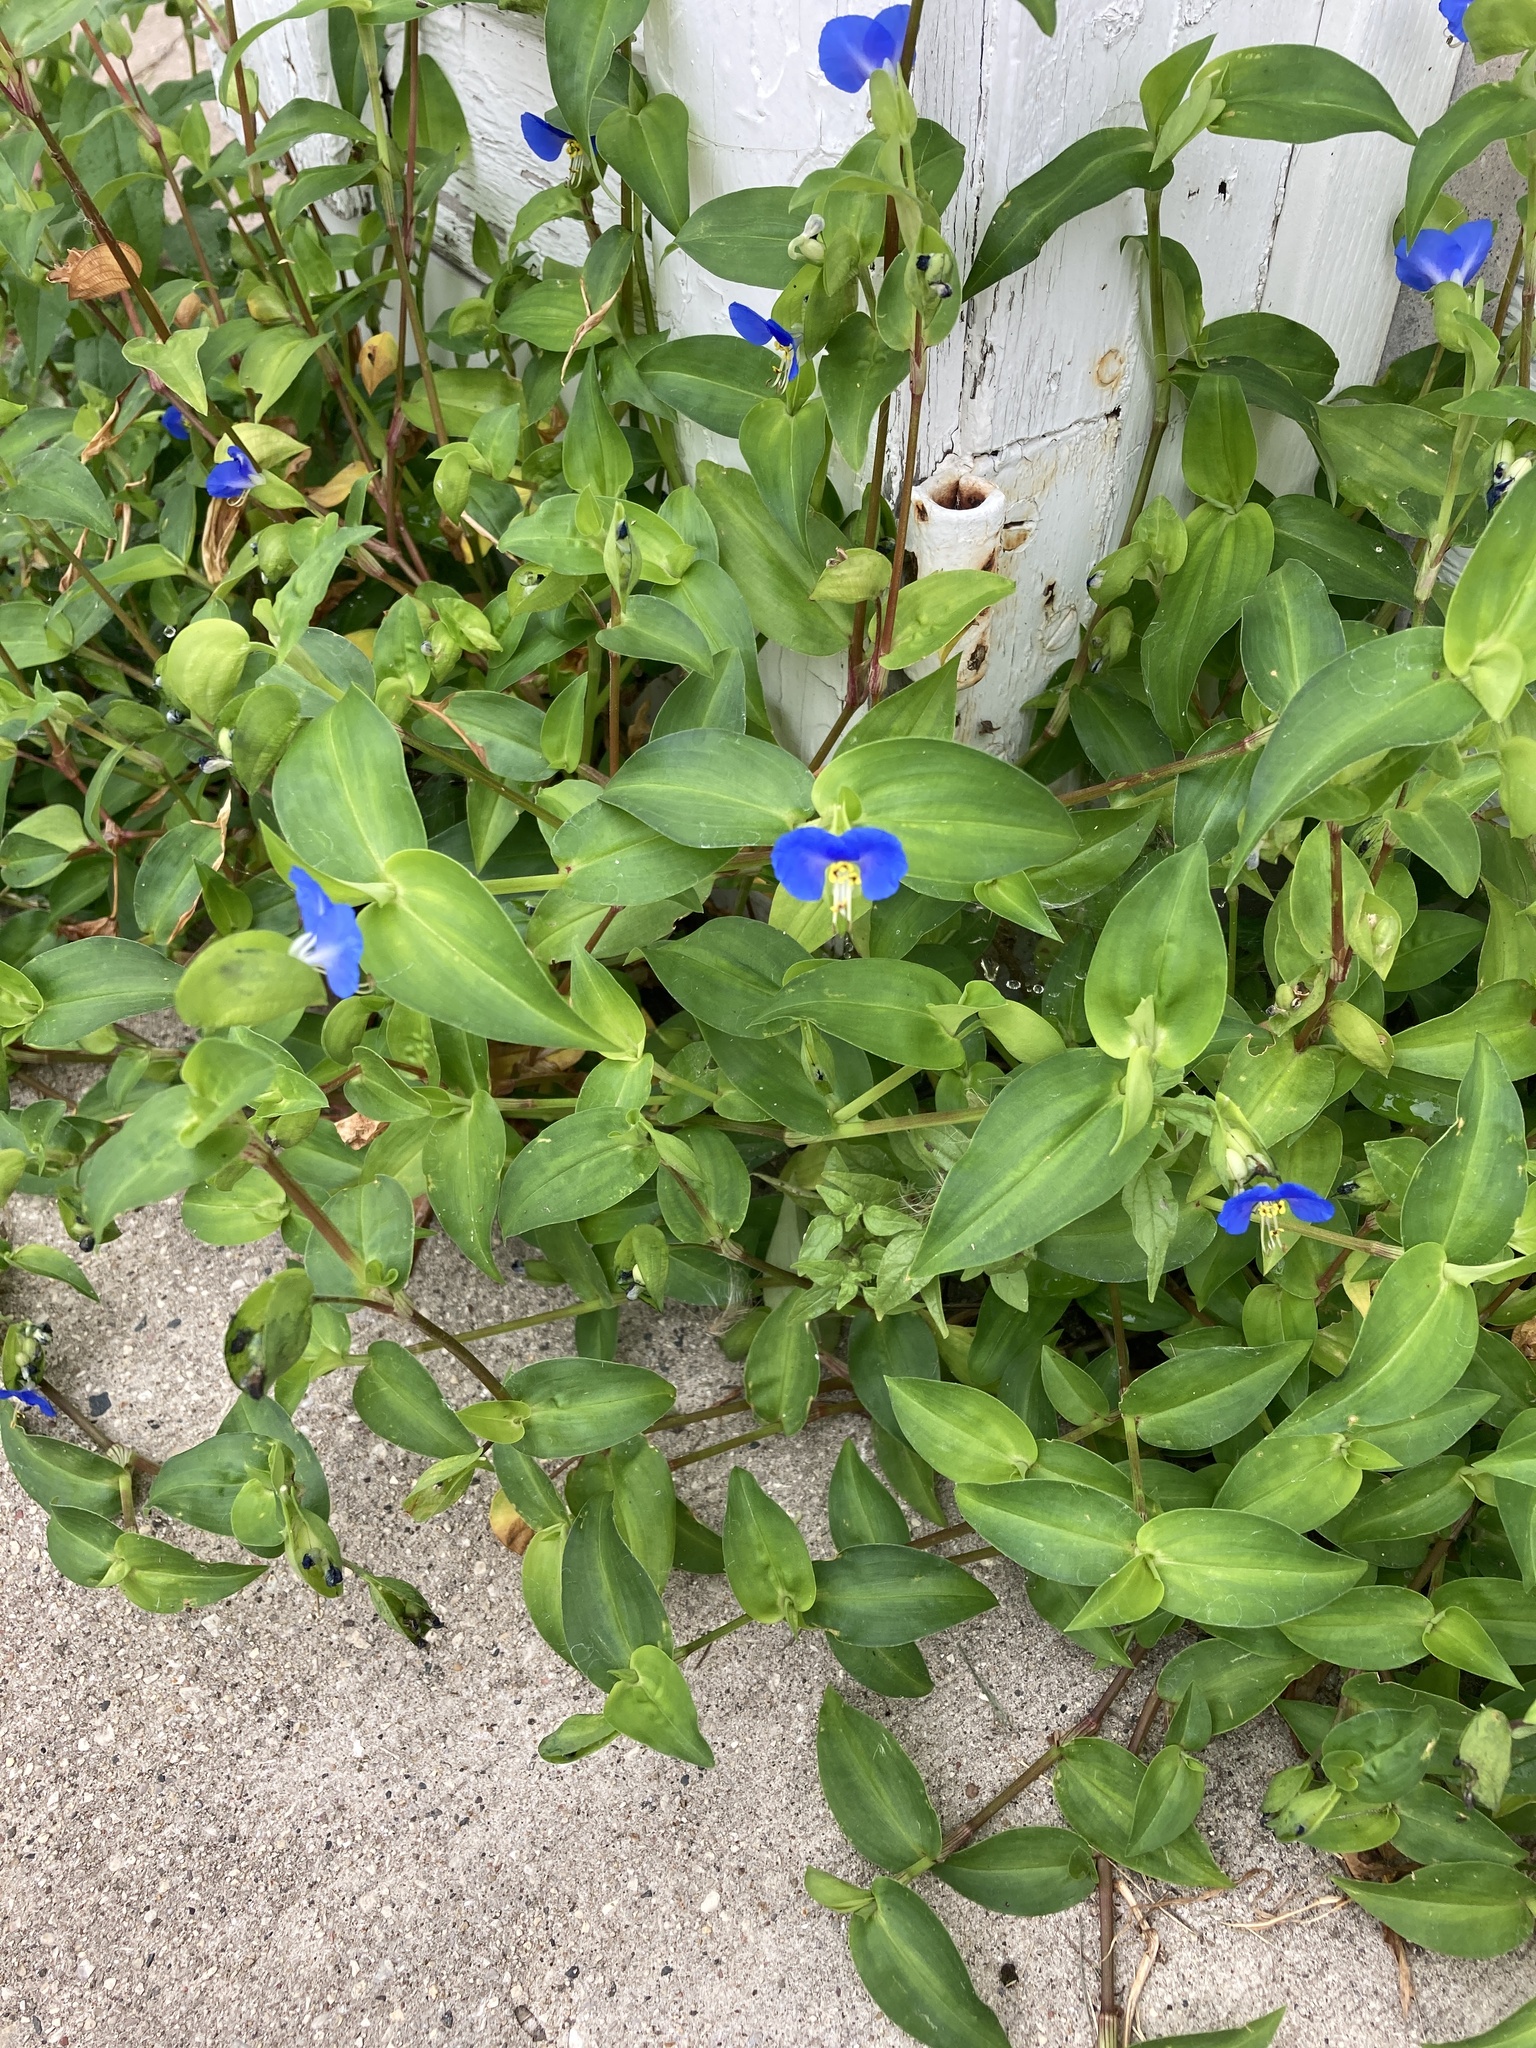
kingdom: Plantae
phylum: Tracheophyta
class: Liliopsida
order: Commelinales
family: Commelinaceae
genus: Commelina
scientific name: Commelina communis
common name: Asiatic dayflower
